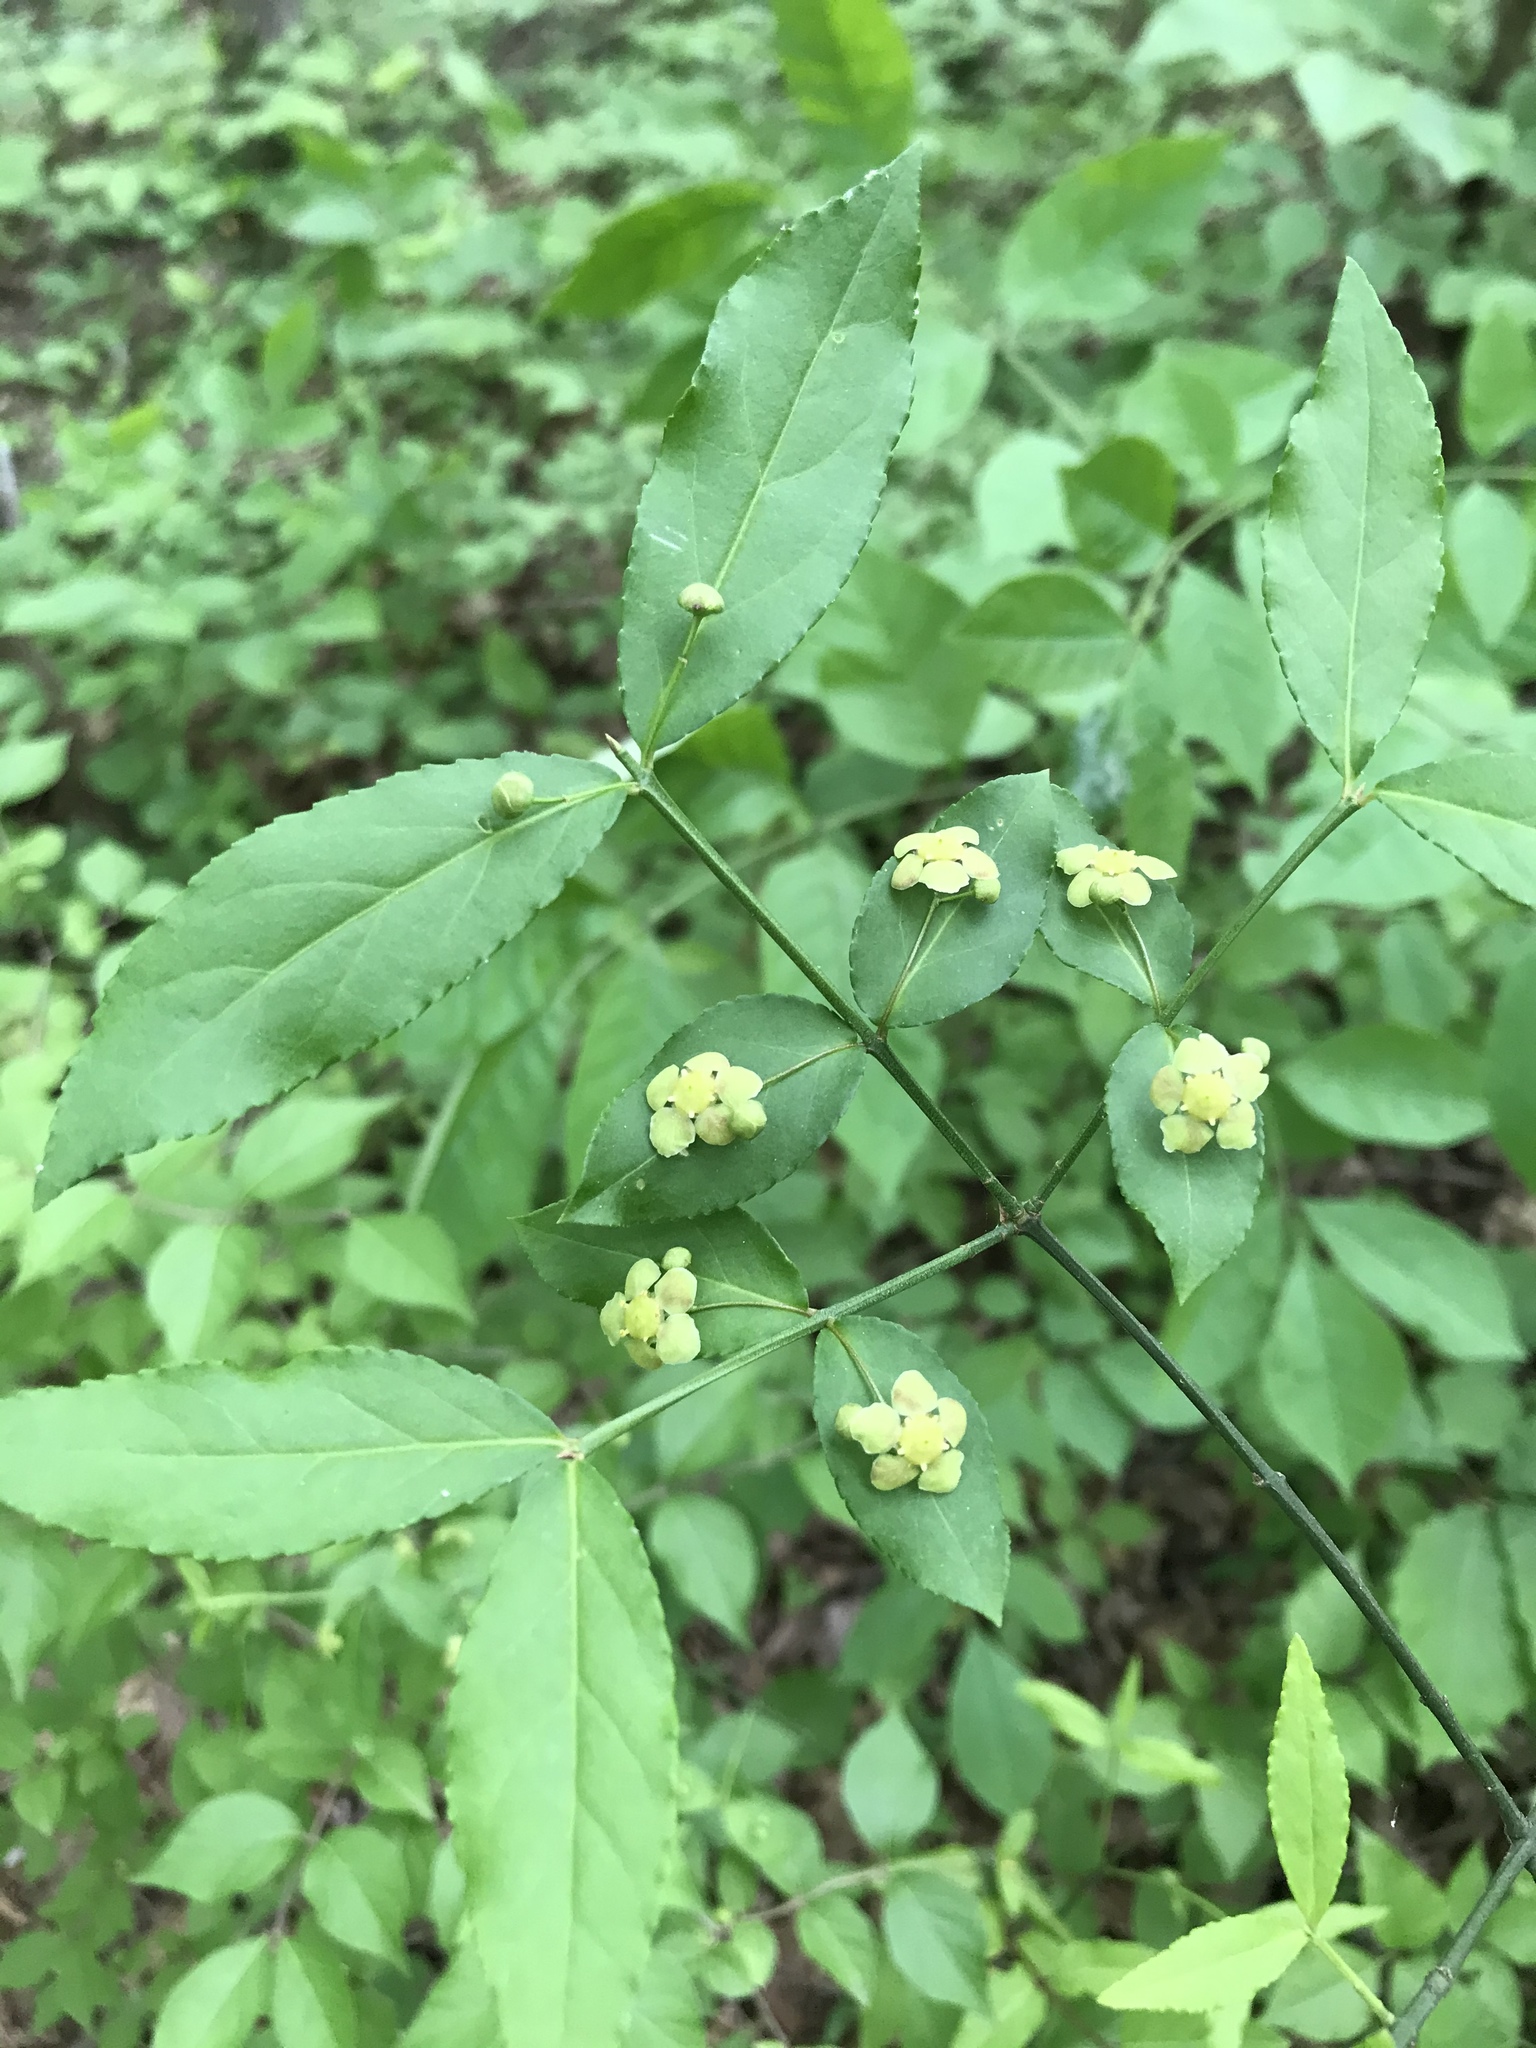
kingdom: Plantae
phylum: Tracheophyta
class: Magnoliopsida
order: Celastrales
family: Celastraceae
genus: Euonymus
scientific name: Euonymus americanus
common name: Bursting-heart
